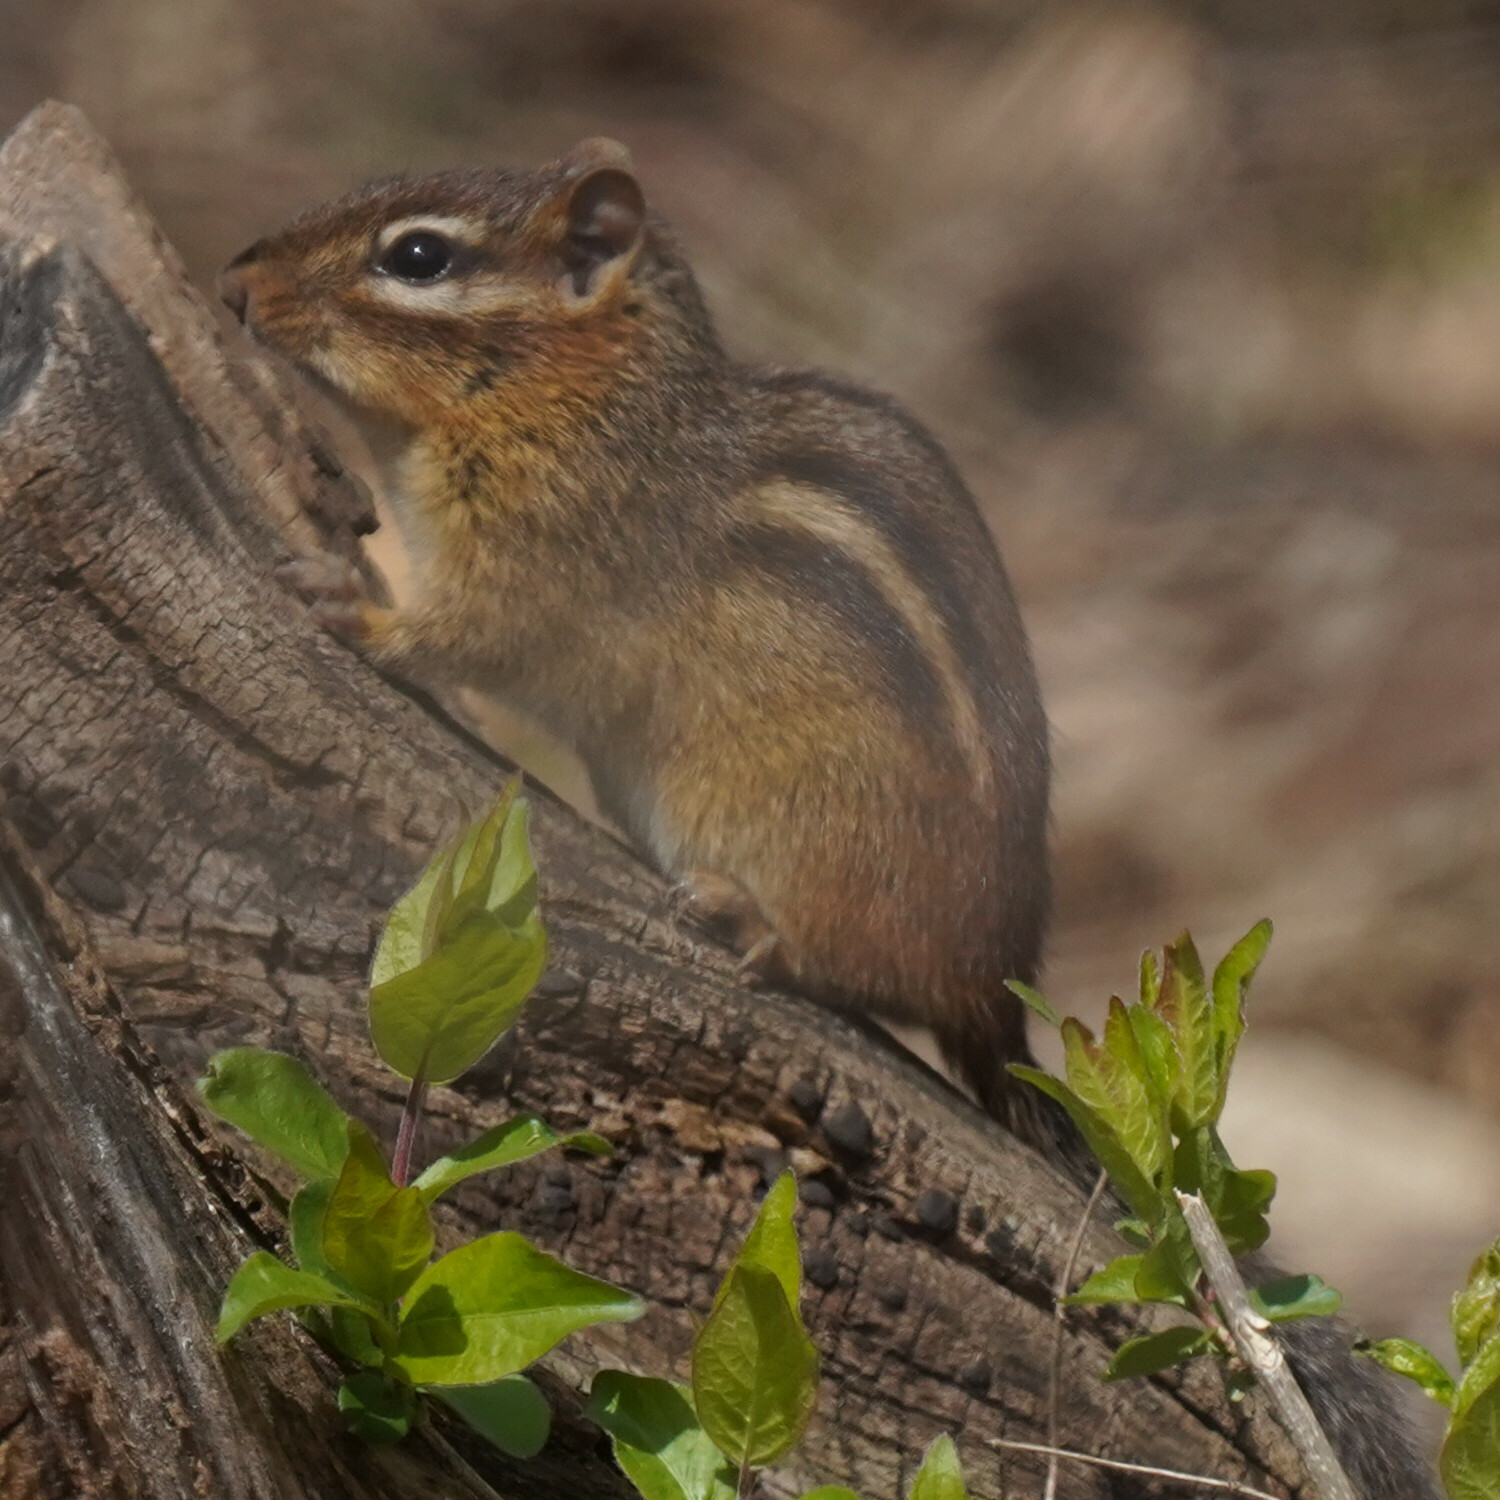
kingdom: Animalia
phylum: Chordata
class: Mammalia
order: Rodentia
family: Sciuridae
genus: Tamias
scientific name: Tamias striatus
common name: Eastern chipmunk
